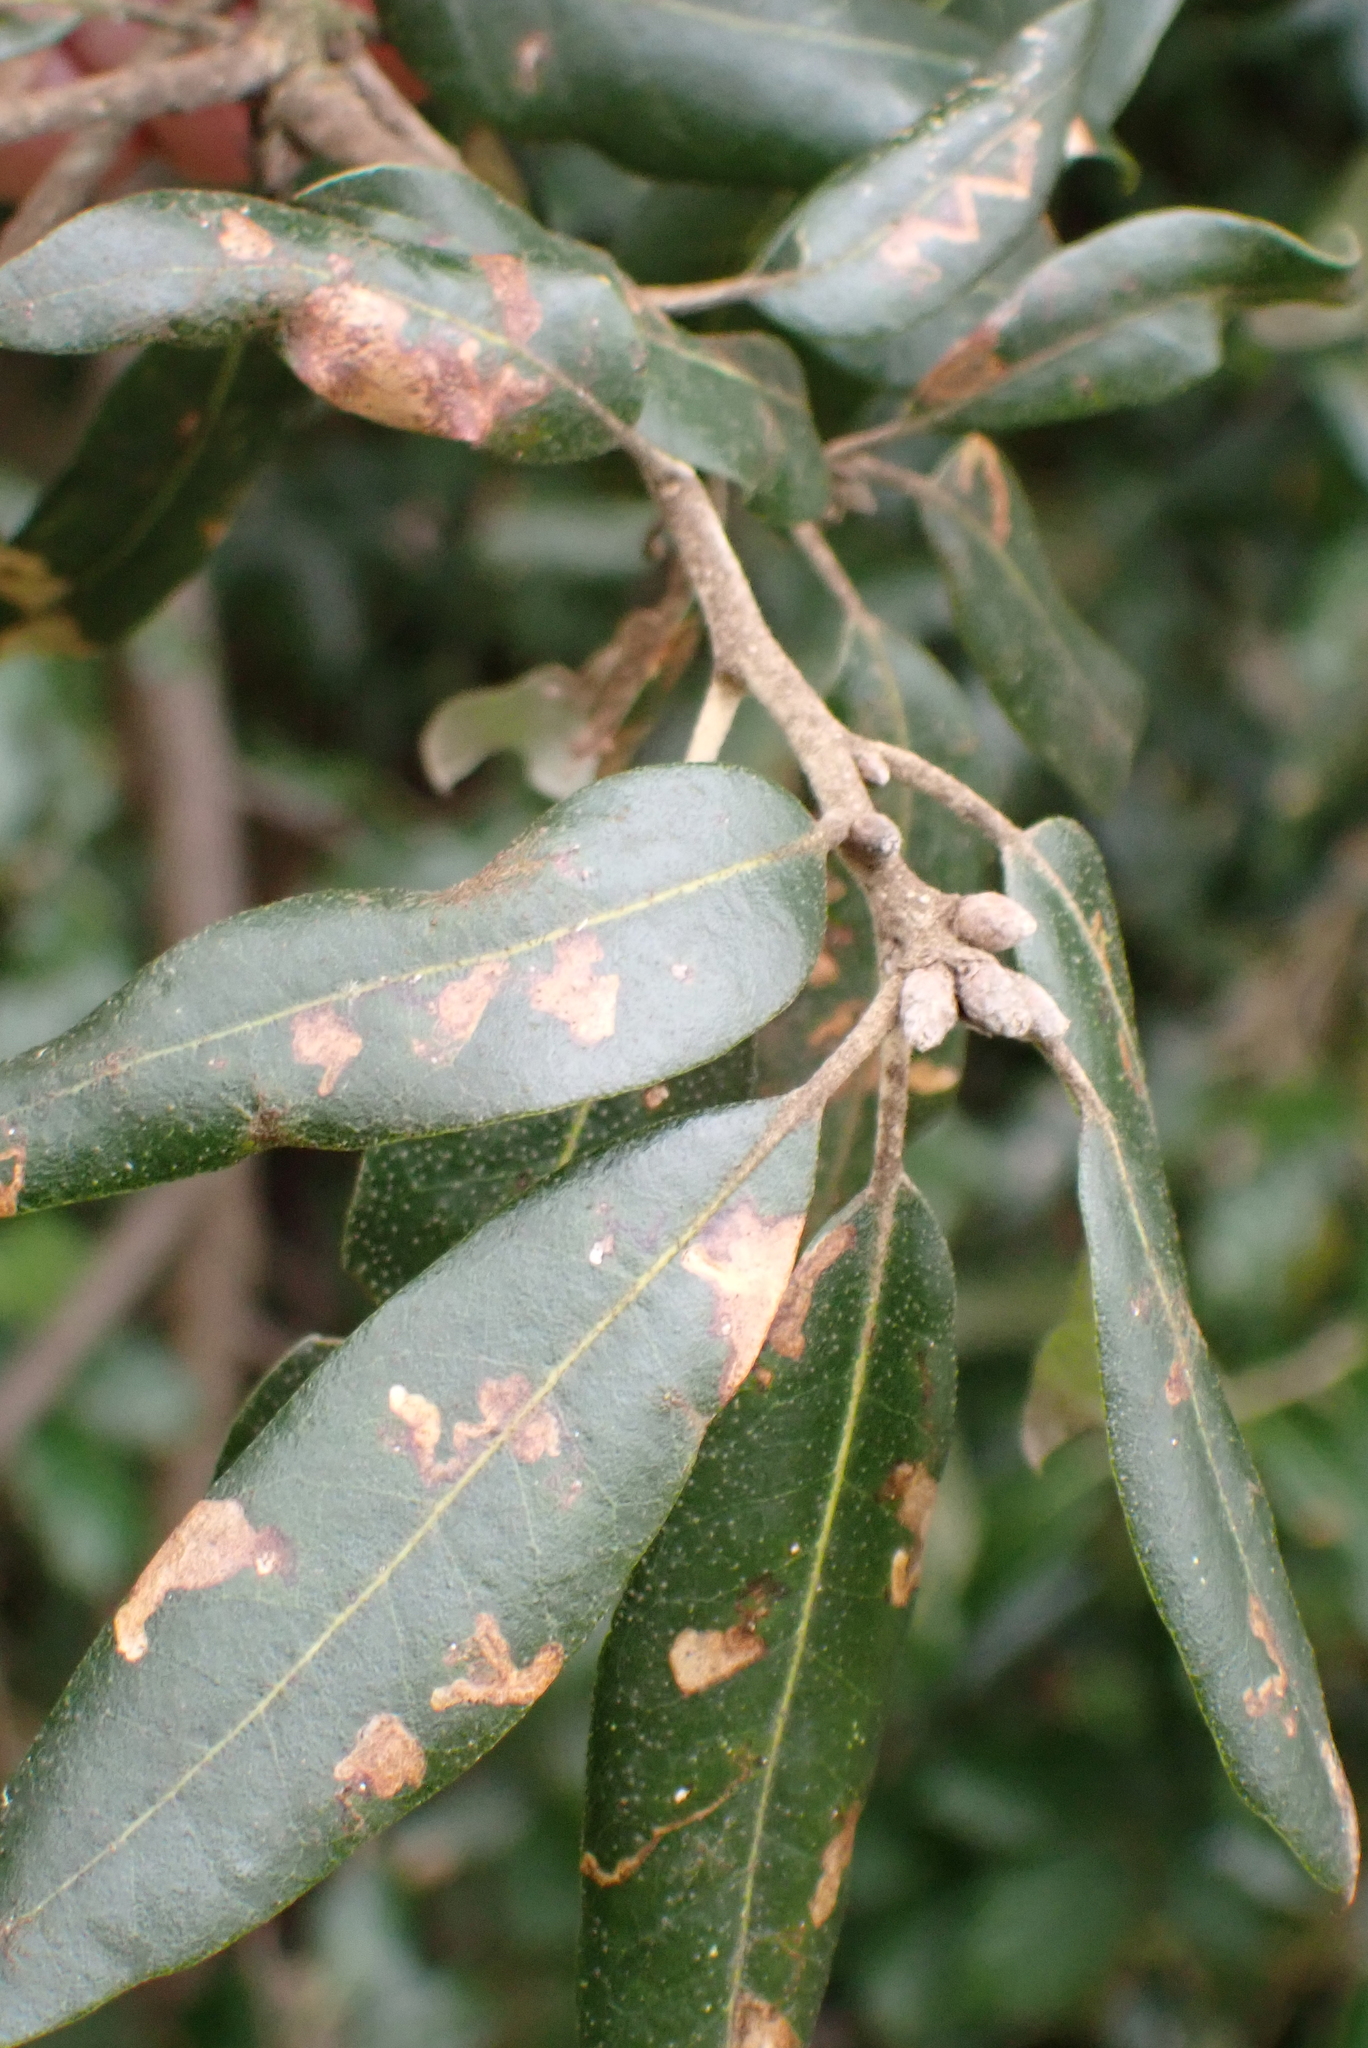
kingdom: Plantae
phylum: Tracheophyta
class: Magnoliopsida
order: Fagales
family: Fagaceae
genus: Quercus
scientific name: Quercus ilex
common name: Evergreen oak
